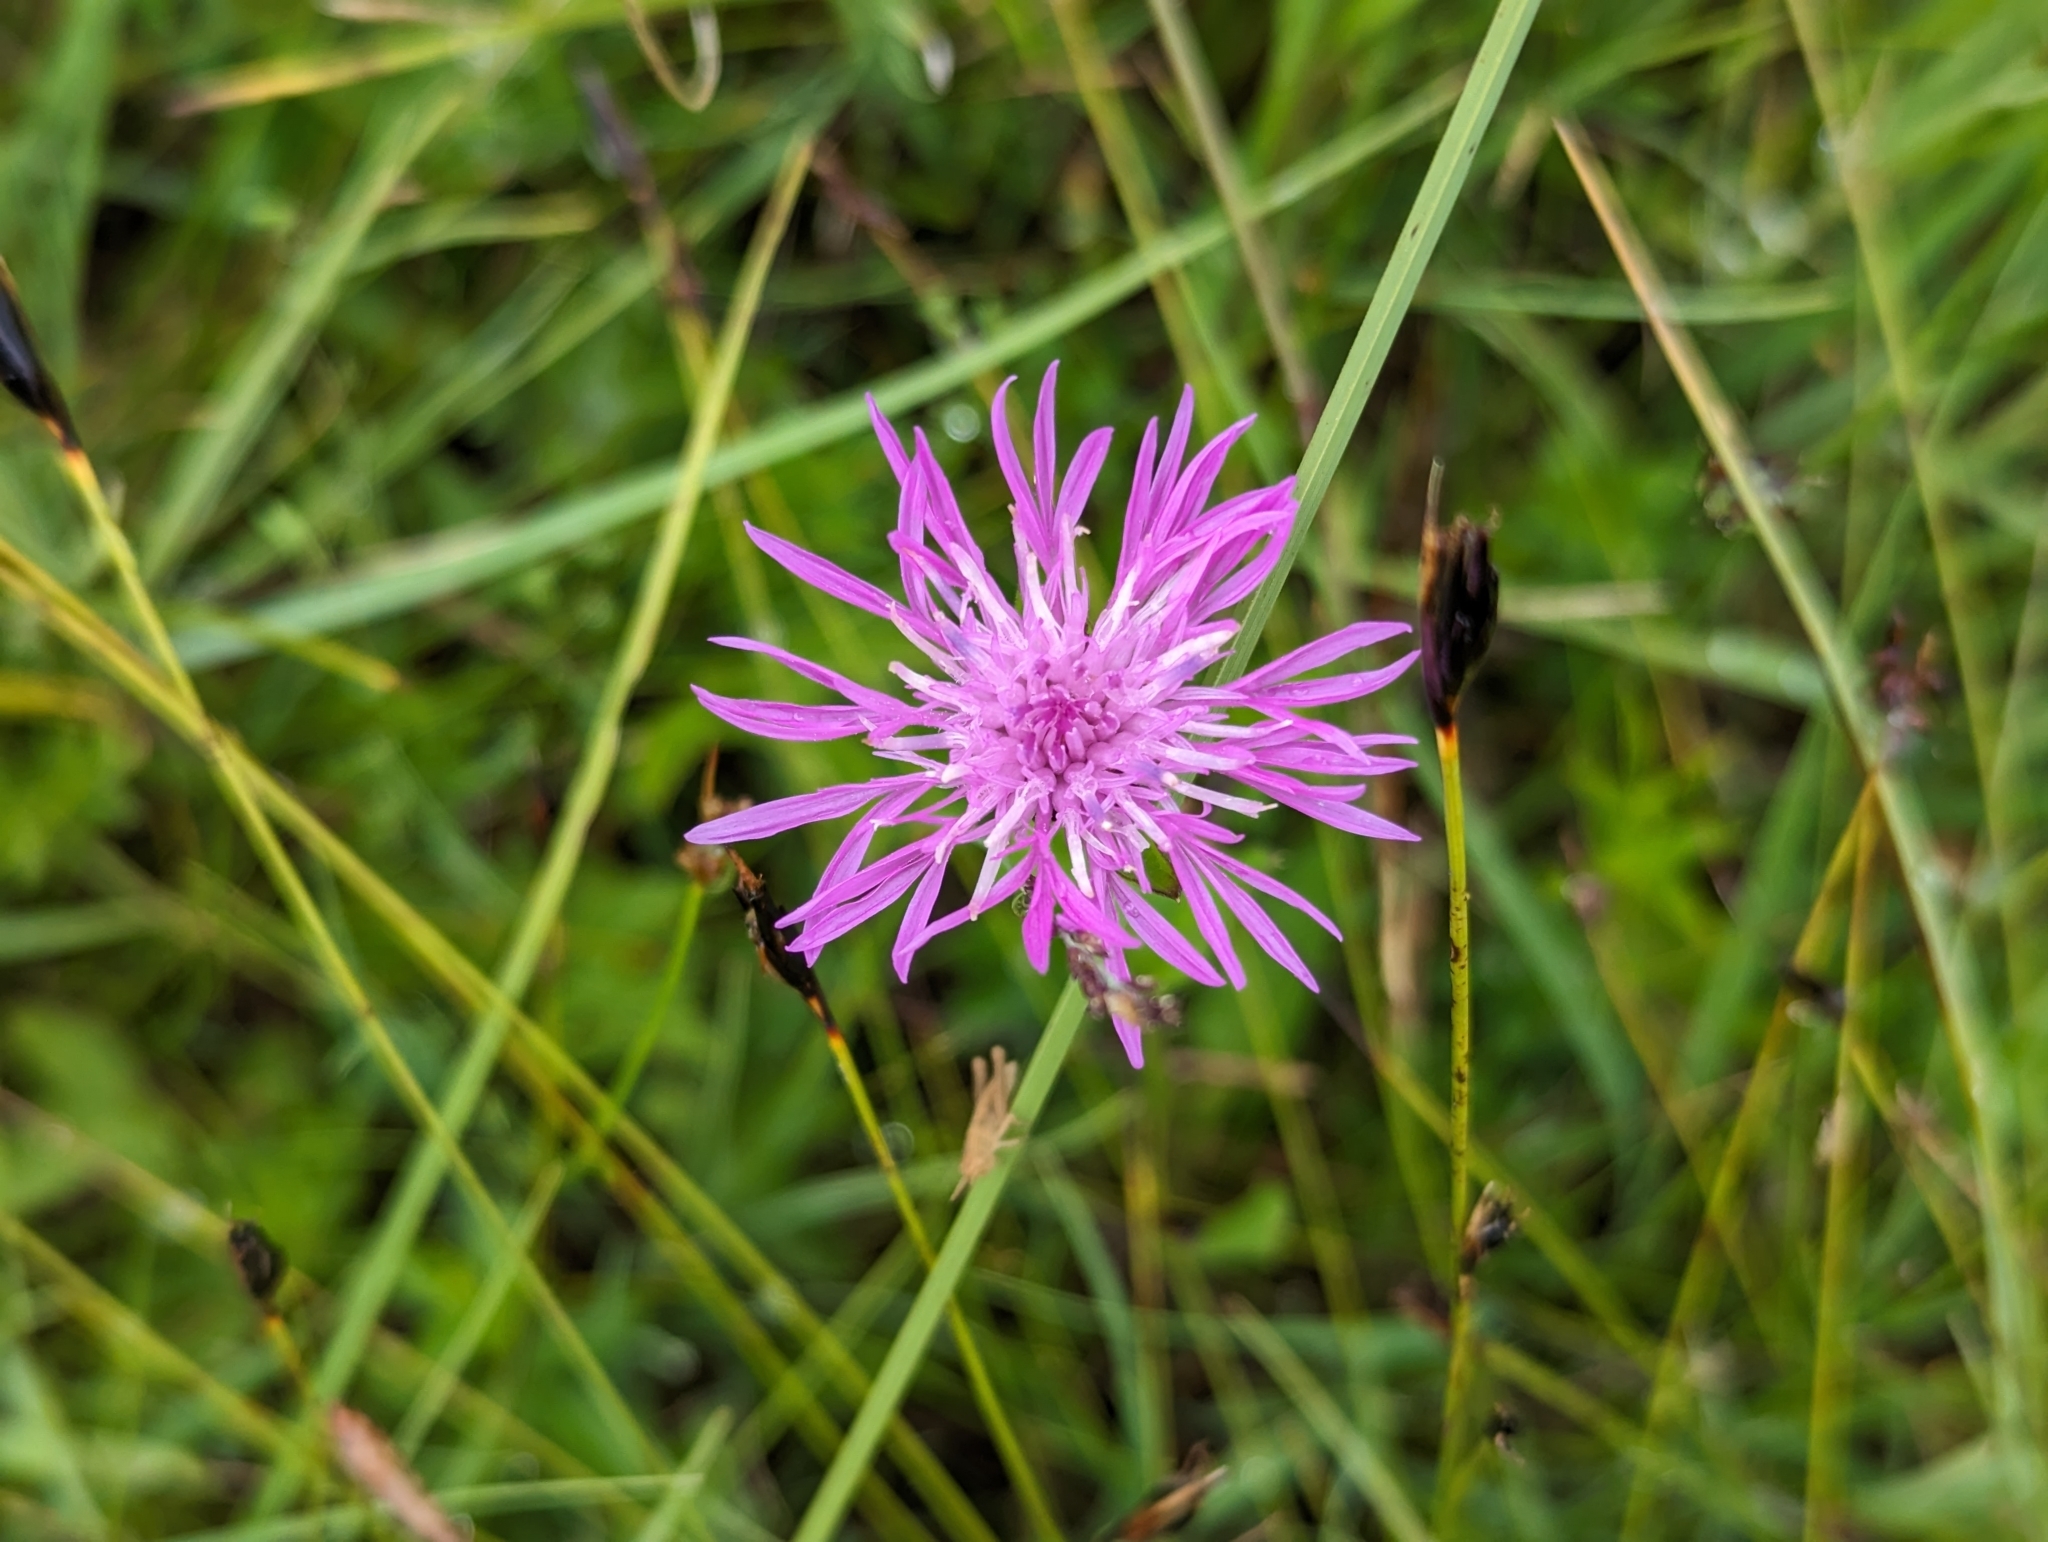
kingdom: Plantae
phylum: Tracheophyta
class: Magnoliopsida
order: Asterales
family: Asteraceae
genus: Centaurea
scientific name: Centaurea jacea
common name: Brown knapweed
